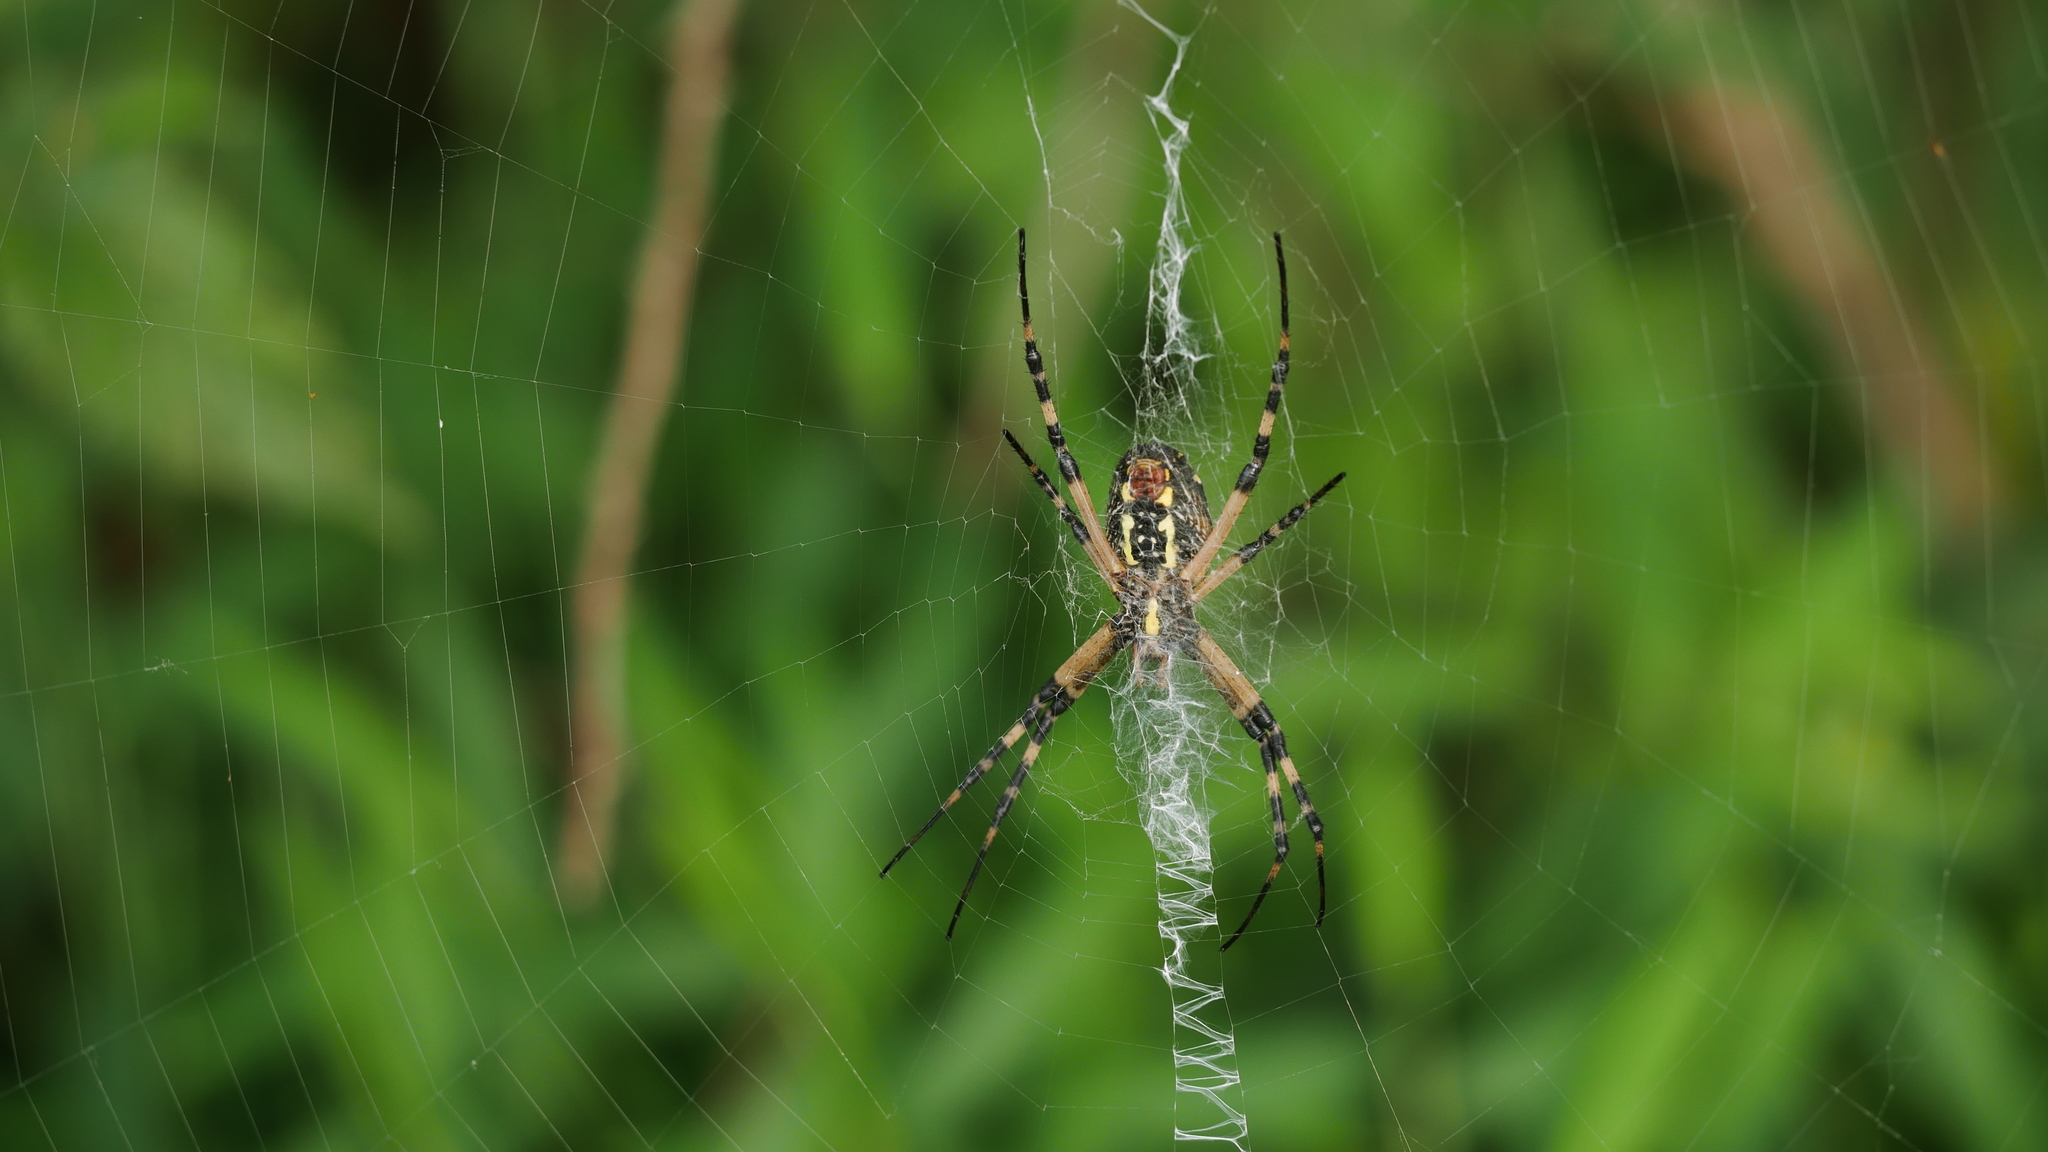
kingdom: Animalia
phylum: Arthropoda
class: Arachnida
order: Araneae
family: Araneidae
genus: Argiope
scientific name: Argiope aurantia
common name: Orb weavers
